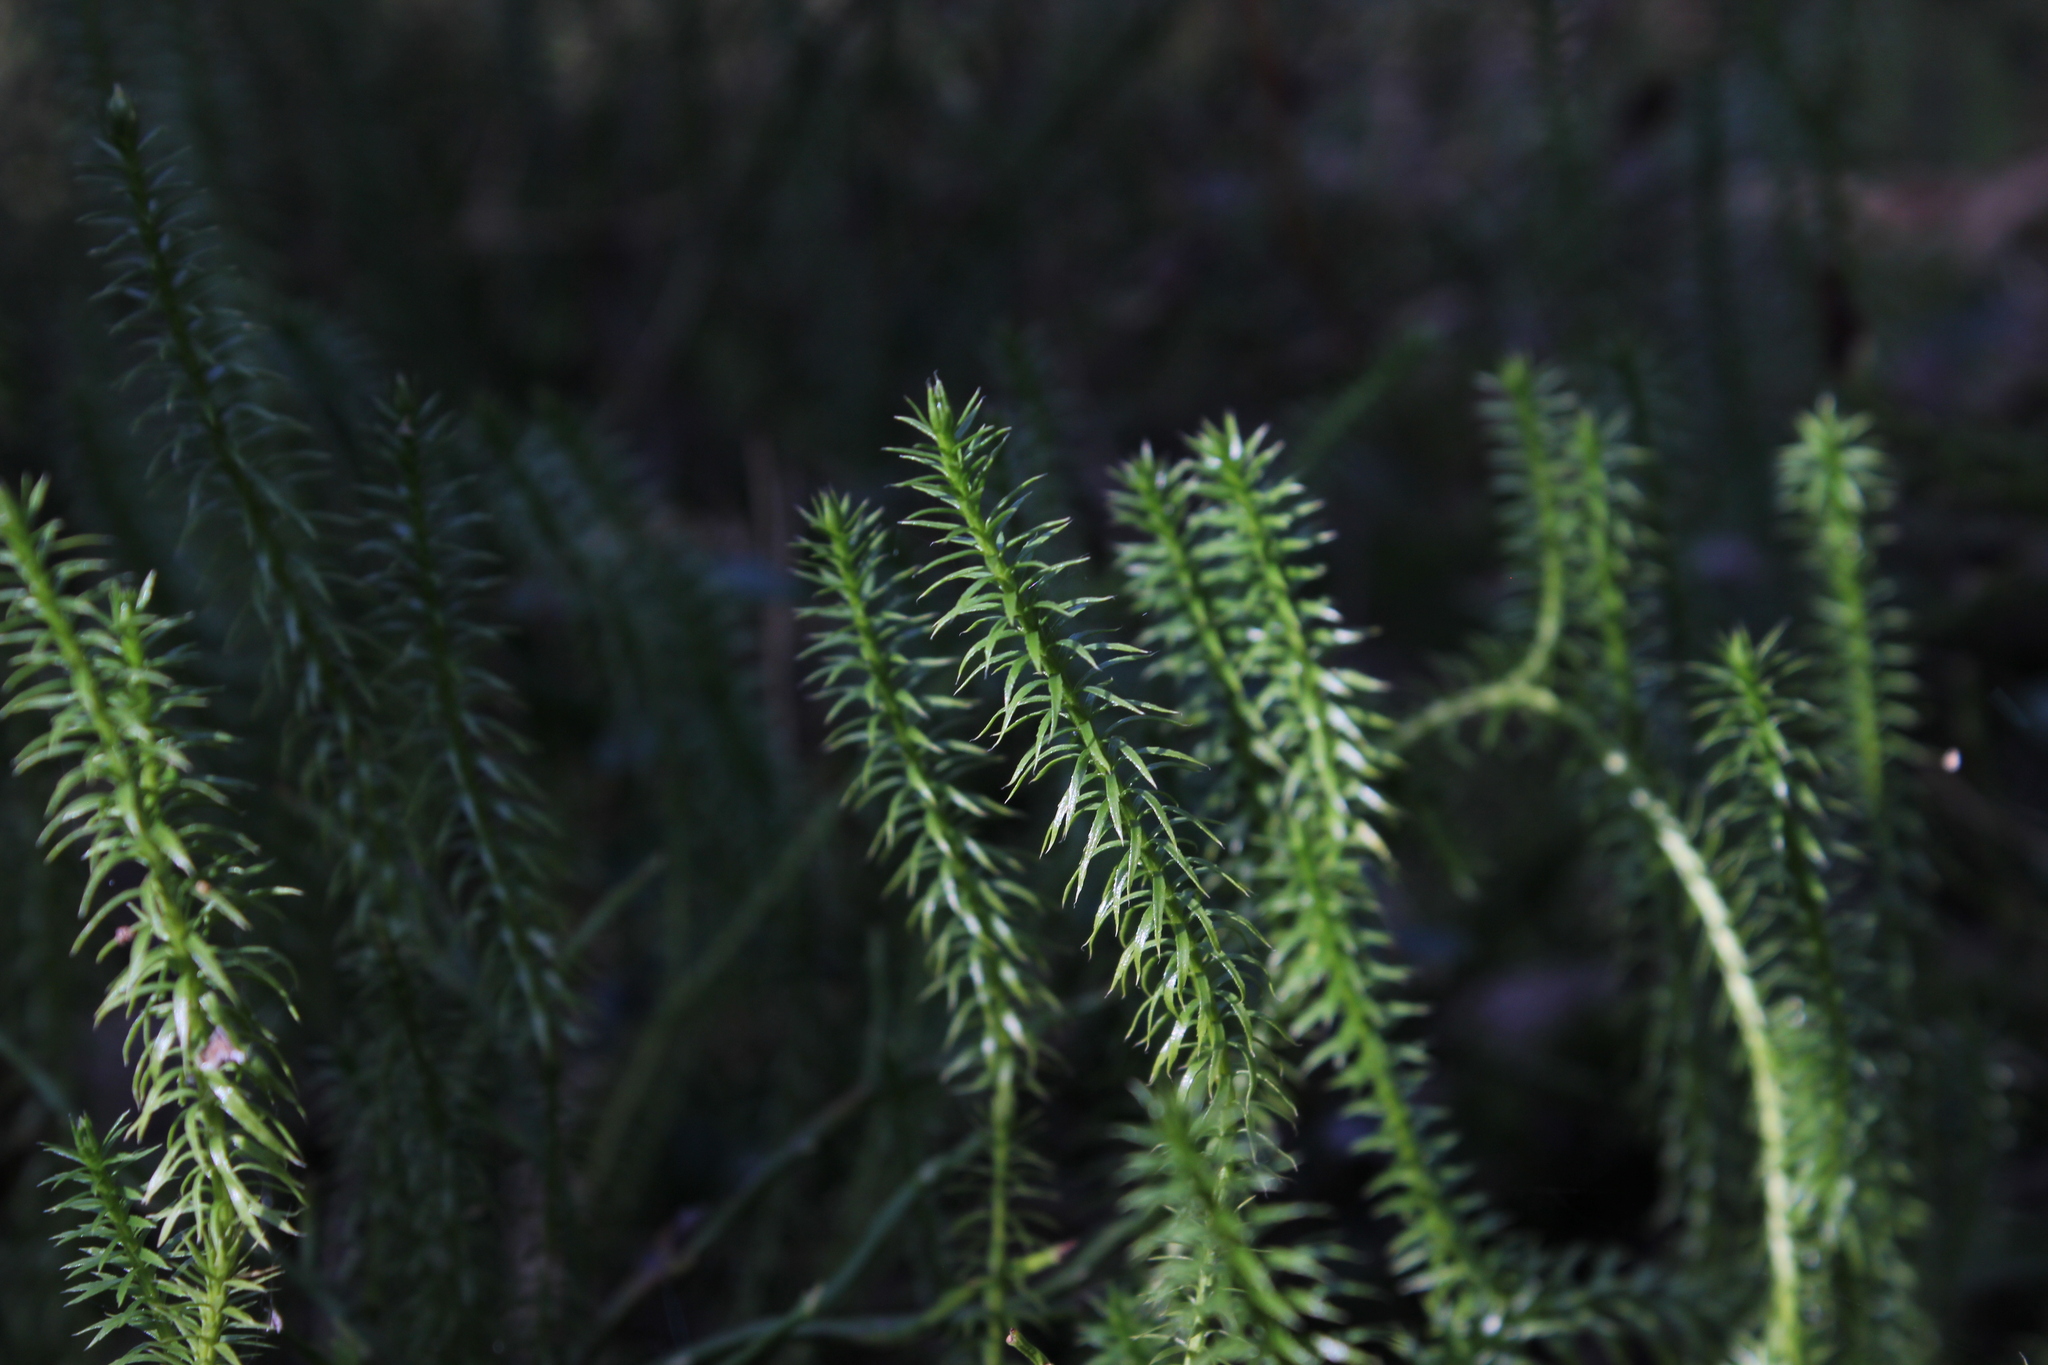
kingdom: Plantae
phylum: Tracheophyta
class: Lycopodiopsida
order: Lycopodiales
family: Lycopodiaceae
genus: Spinulum
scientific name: Spinulum annotinum
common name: Interrupted club-moss
